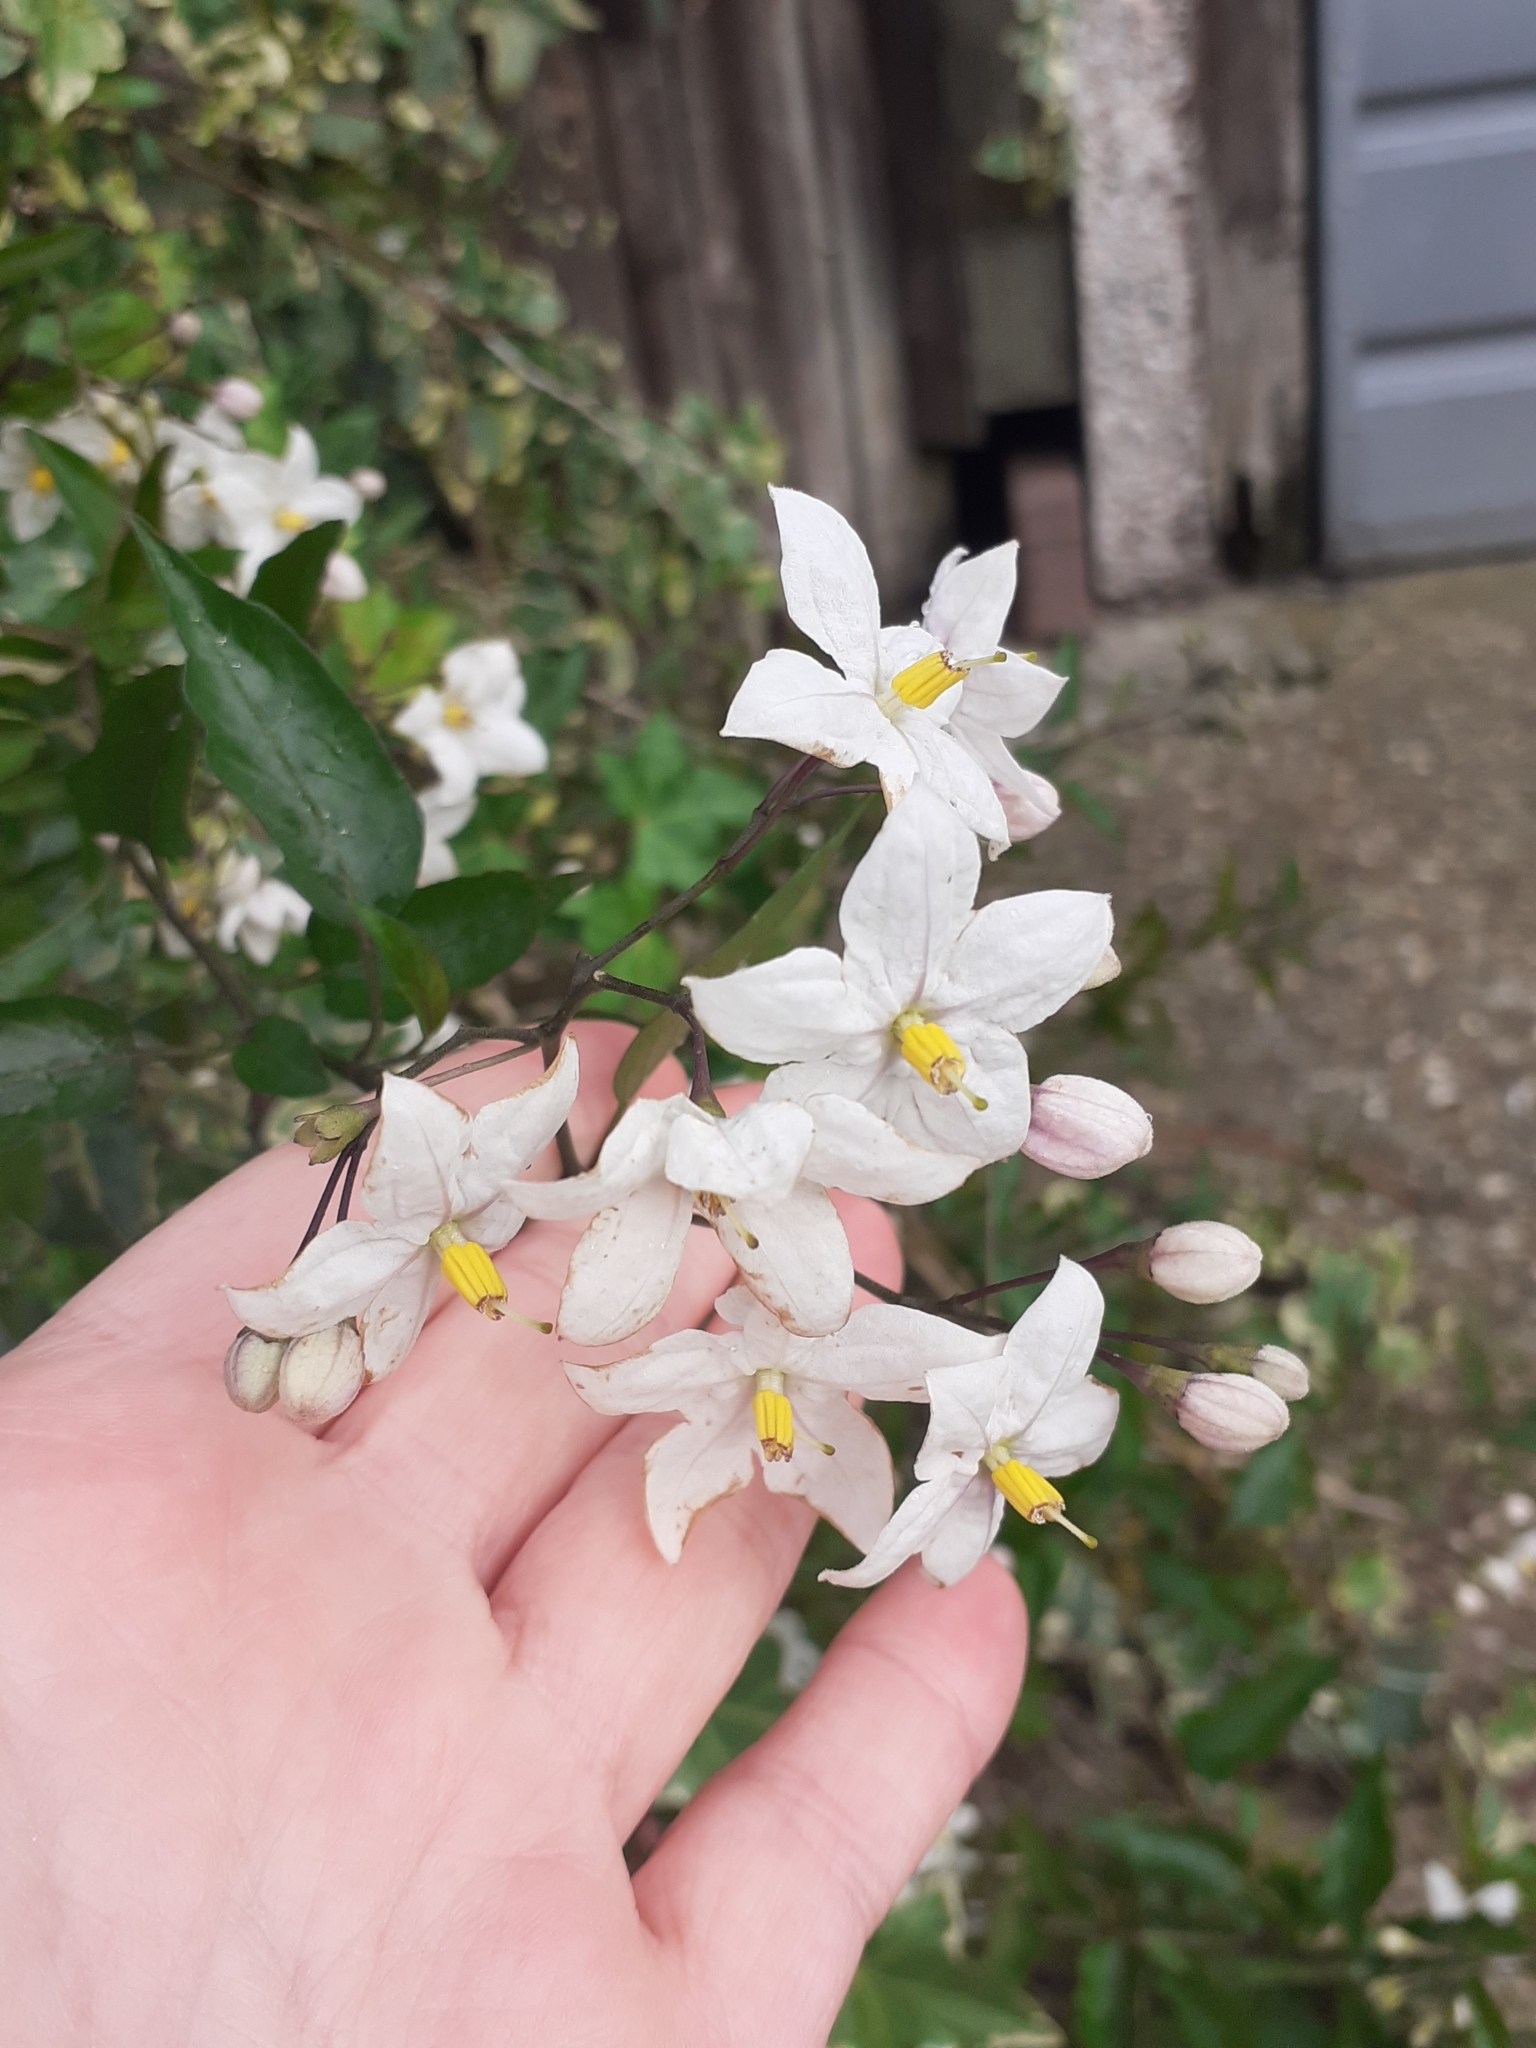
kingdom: Plantae
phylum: Tracheophyta
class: Magnoliopsida
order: Solanales
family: Solanaceae
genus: Solanum
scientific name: Solanum laxum
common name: Nightshade
